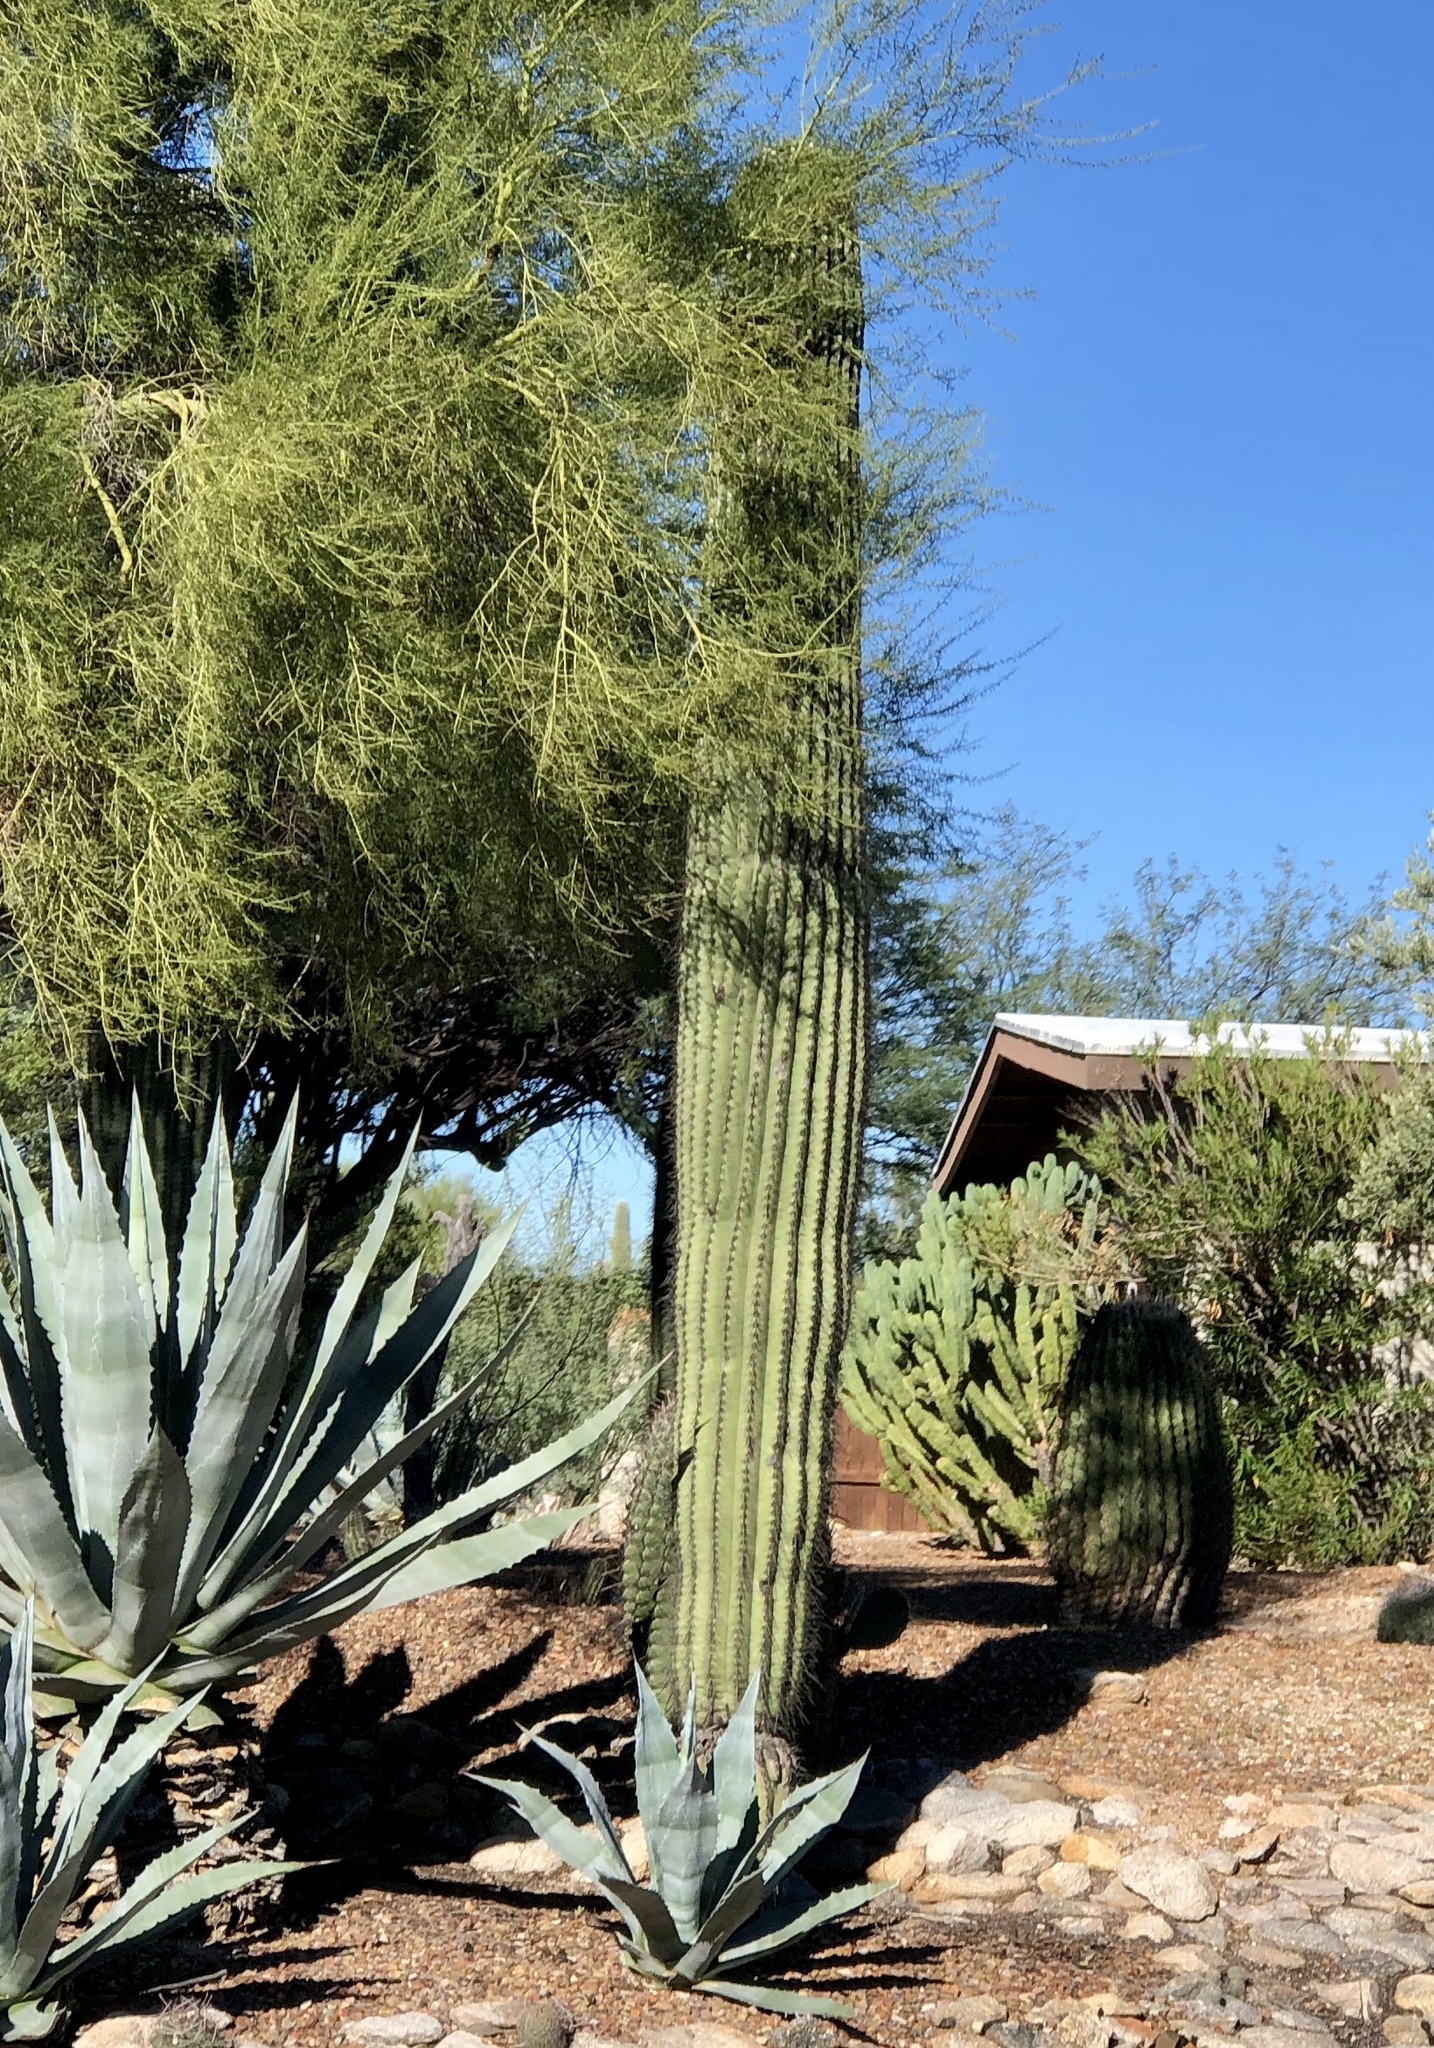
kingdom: Plantae
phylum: Tracheophyta
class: Magnoliopsida
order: Caryophyllales
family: Cactaceae
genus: Carnegiea
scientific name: Carnegiea gigantea
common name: Saguaro
